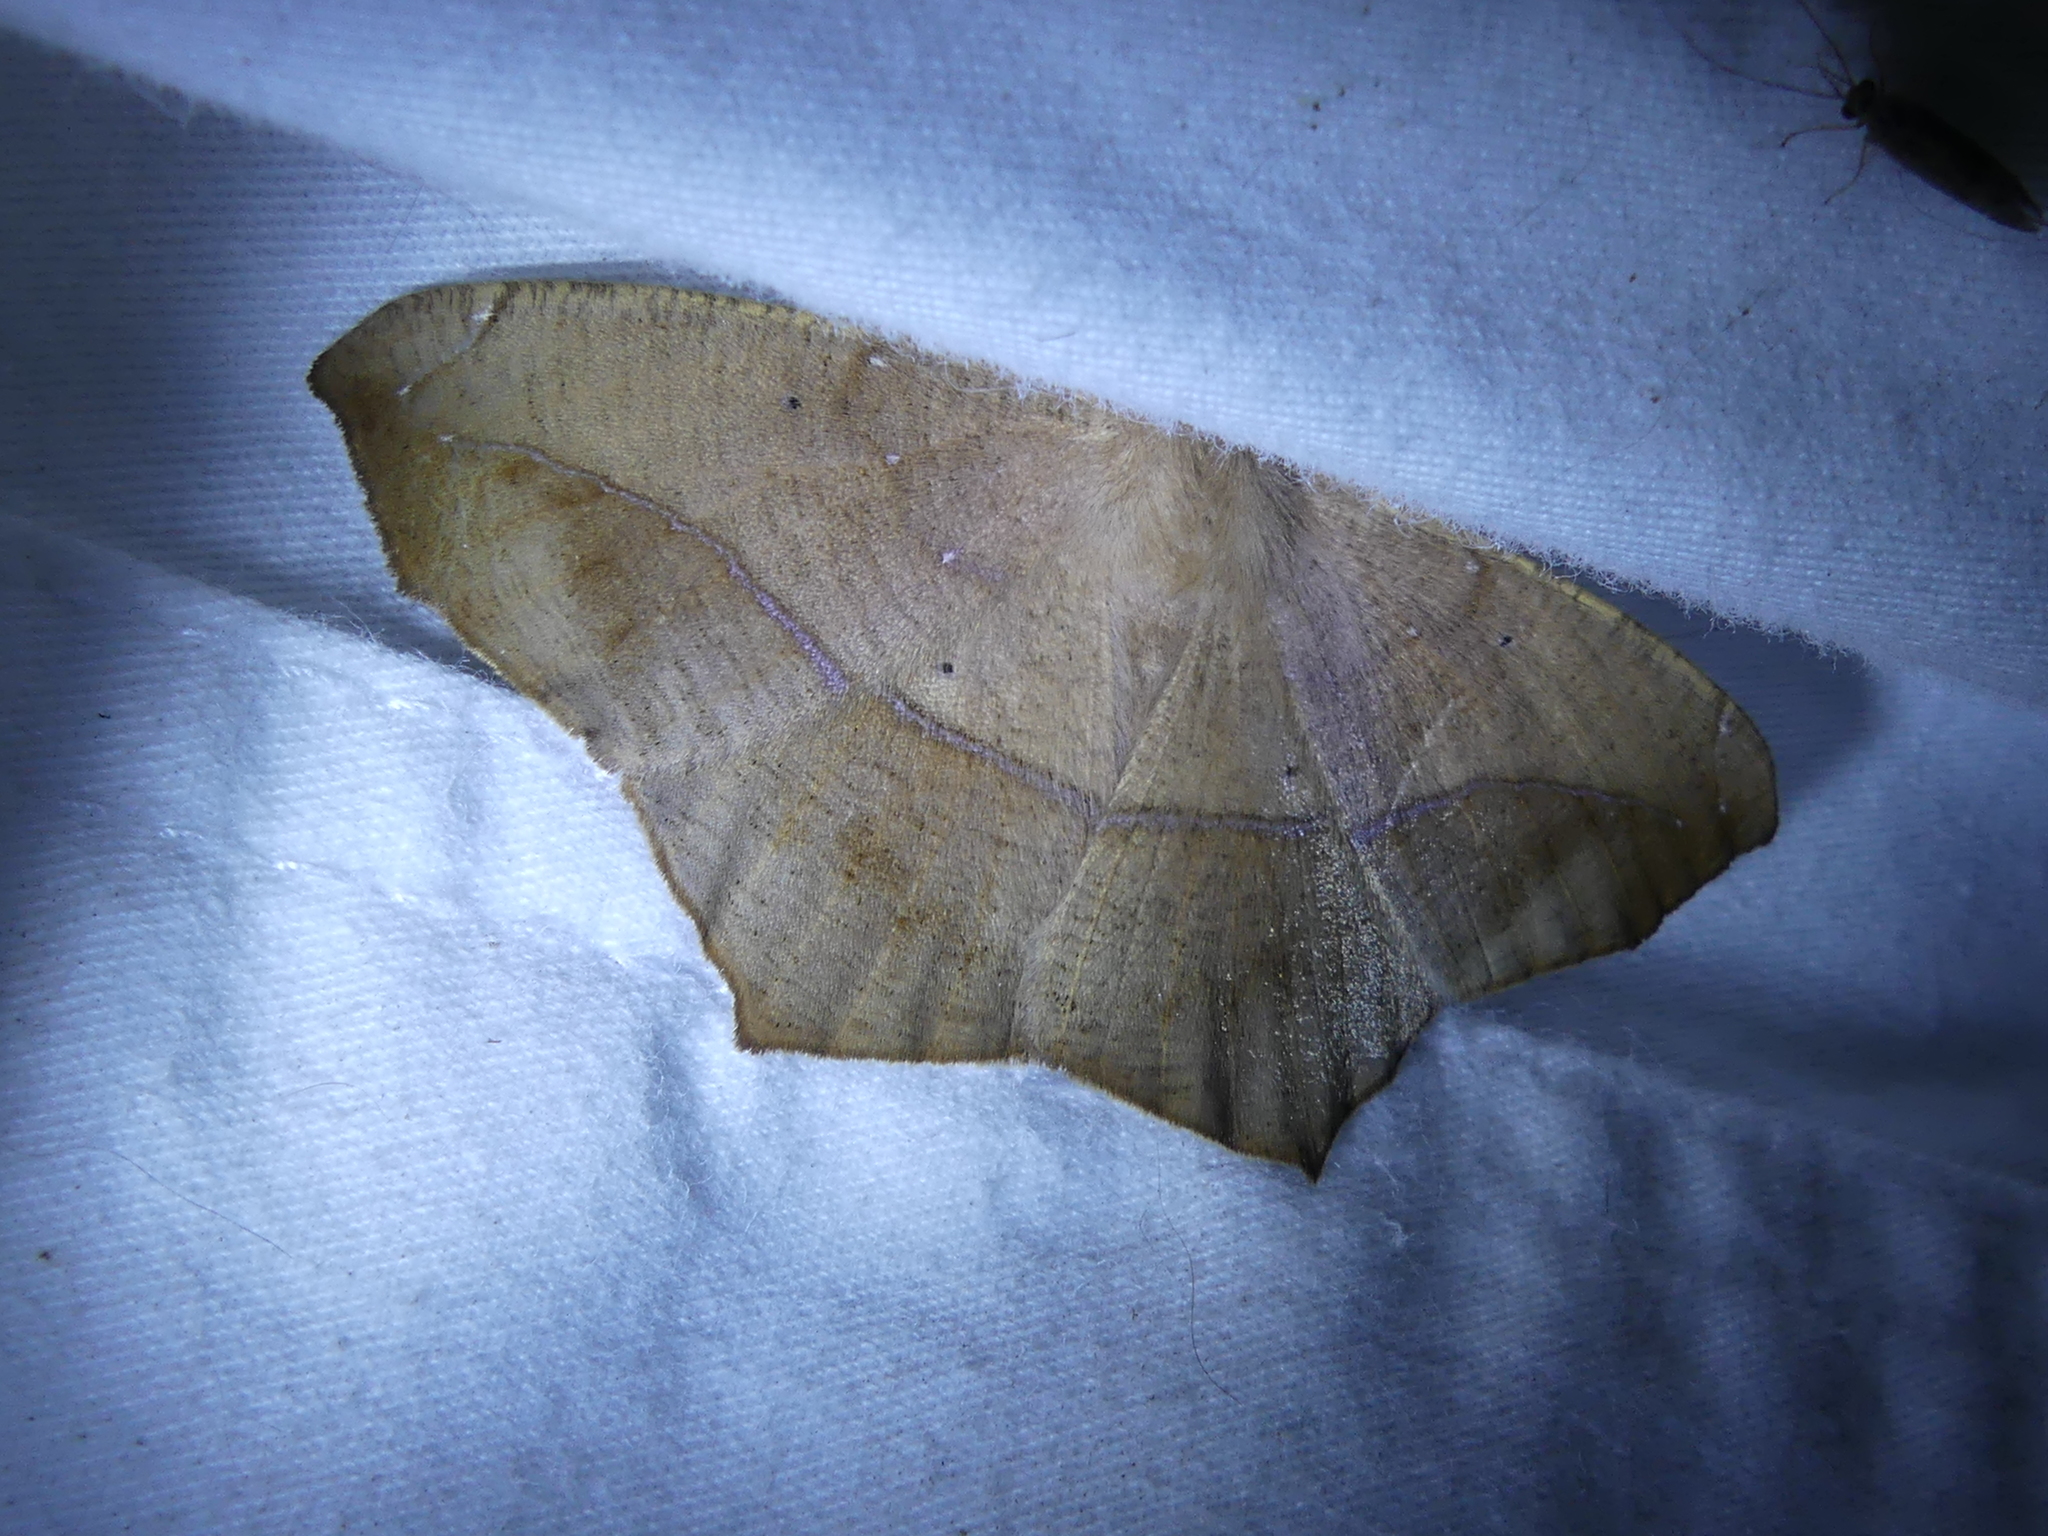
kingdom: Animalia
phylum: Arthropoda
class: Insecta
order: Lepidoptera
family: Geometridae
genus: Prochoerodes
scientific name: Prochoerodes lineola
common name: Large maple spanworm
